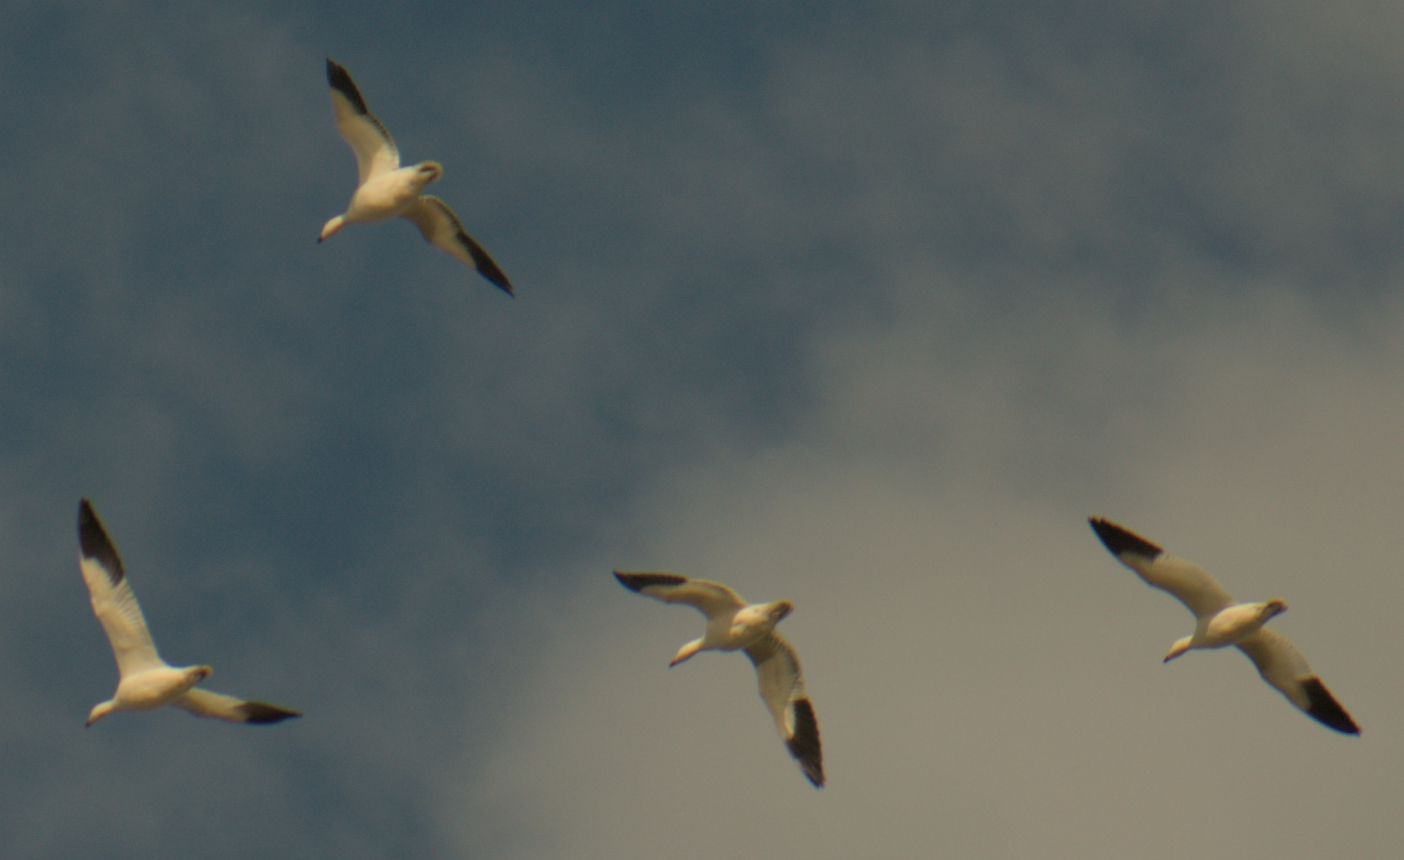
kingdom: Animalia
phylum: Chordata
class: Aves
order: Anseriformes
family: Anatidae
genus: Anser
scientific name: Anser caerulescens
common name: Snow goose
